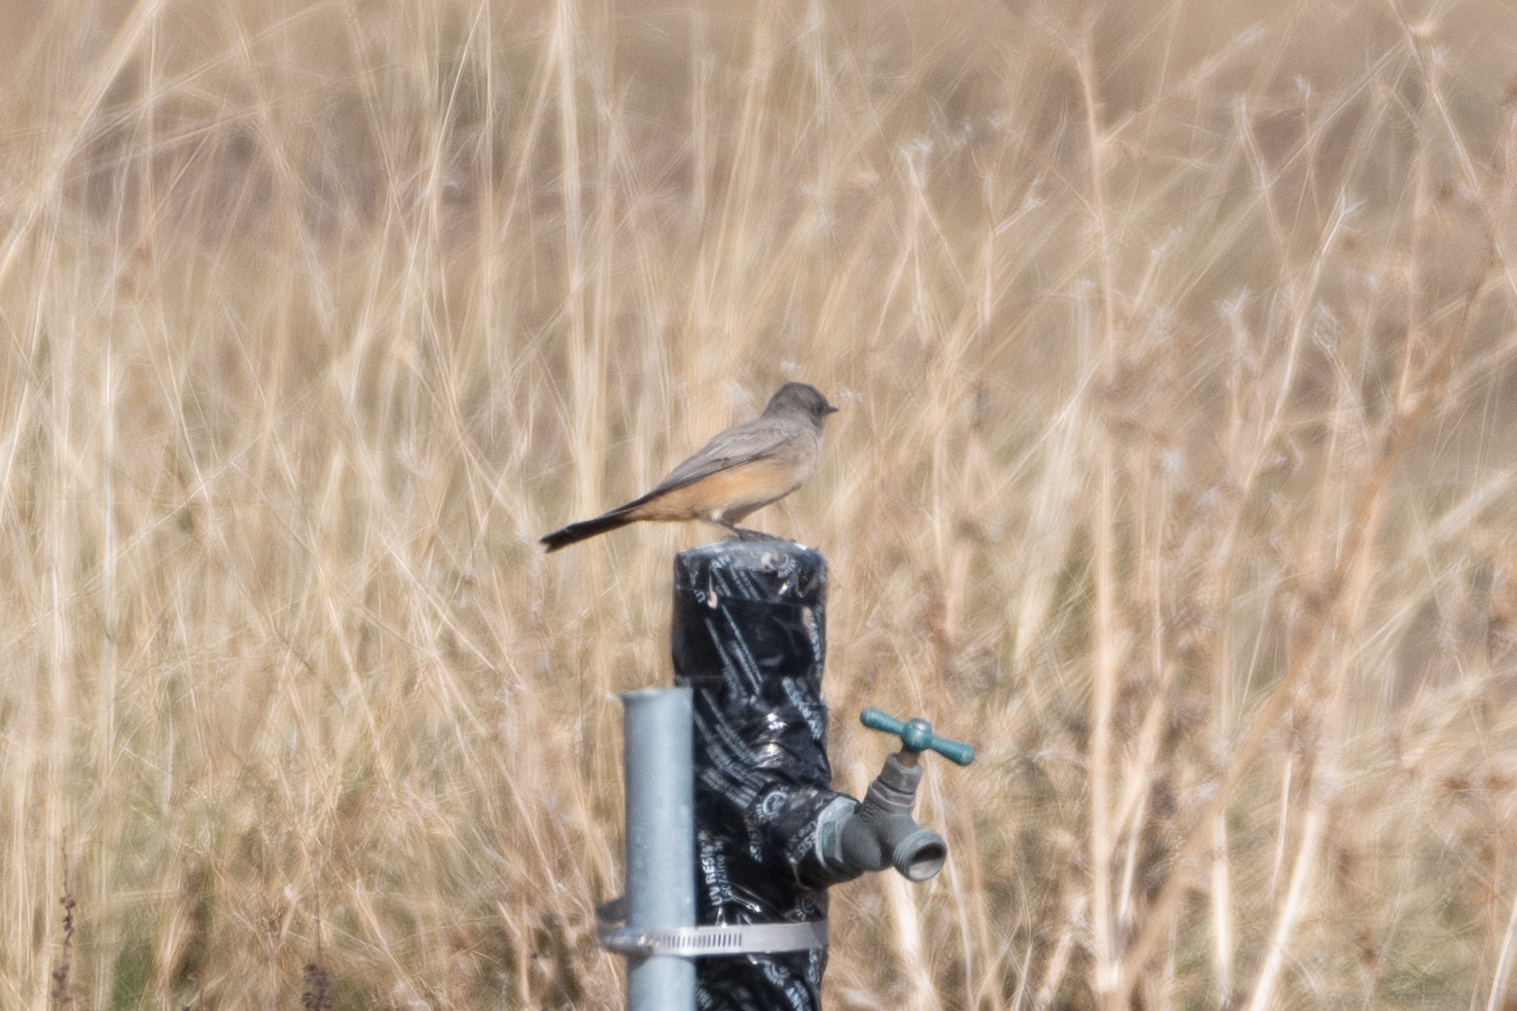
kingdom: Animalia
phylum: Chordata
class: Aves
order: Passeriformes
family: Tyrannidae
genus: Sayornis
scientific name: Sayornis saya
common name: Say's phoebe
